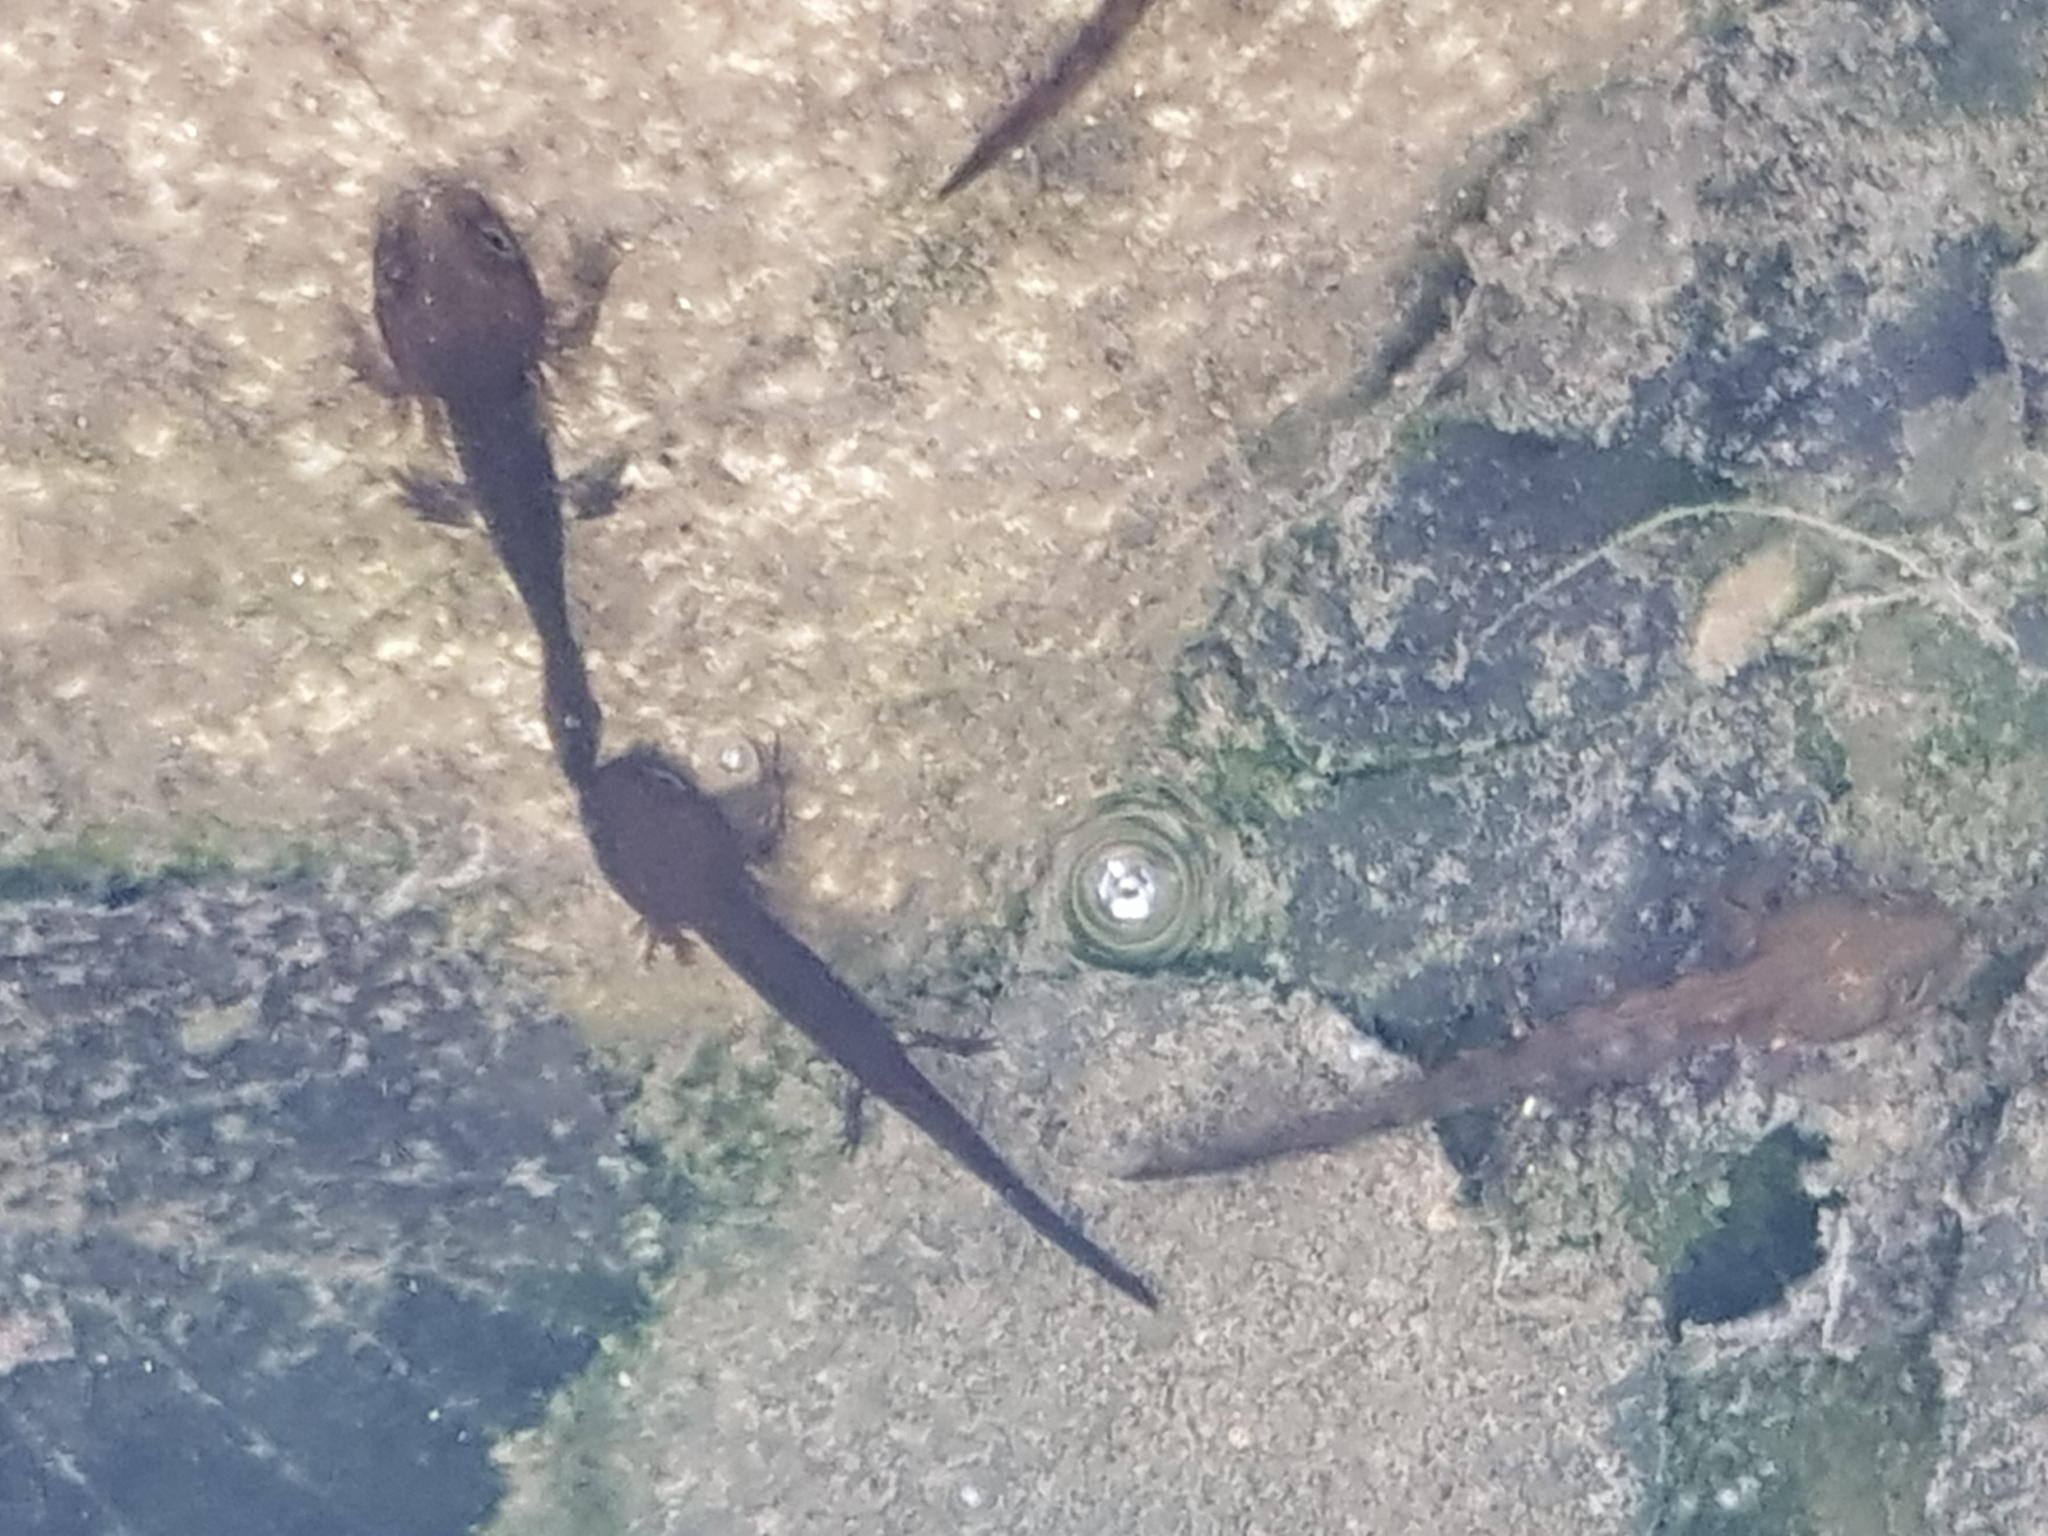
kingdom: Animalia
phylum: Chordata
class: Amphibia
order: Caudata
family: Salamandridae
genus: Salamandra
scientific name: Salamandra salamandra
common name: Fire salamander
